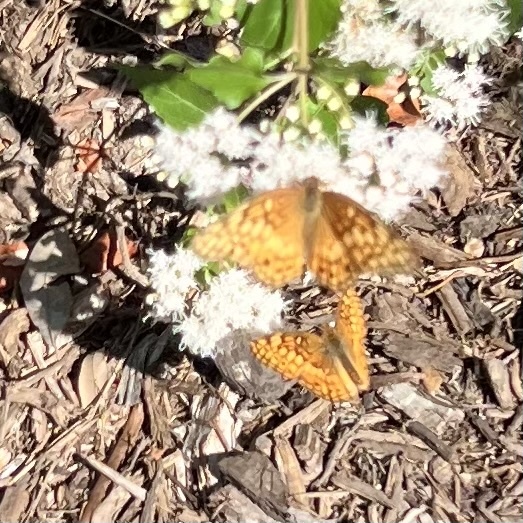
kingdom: Animalia
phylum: Arthropoda
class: Insecta
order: Lepidoptera
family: Nymphalidae
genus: Euptoieta
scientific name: Euptoieta claudia
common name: Variegated fritillary
